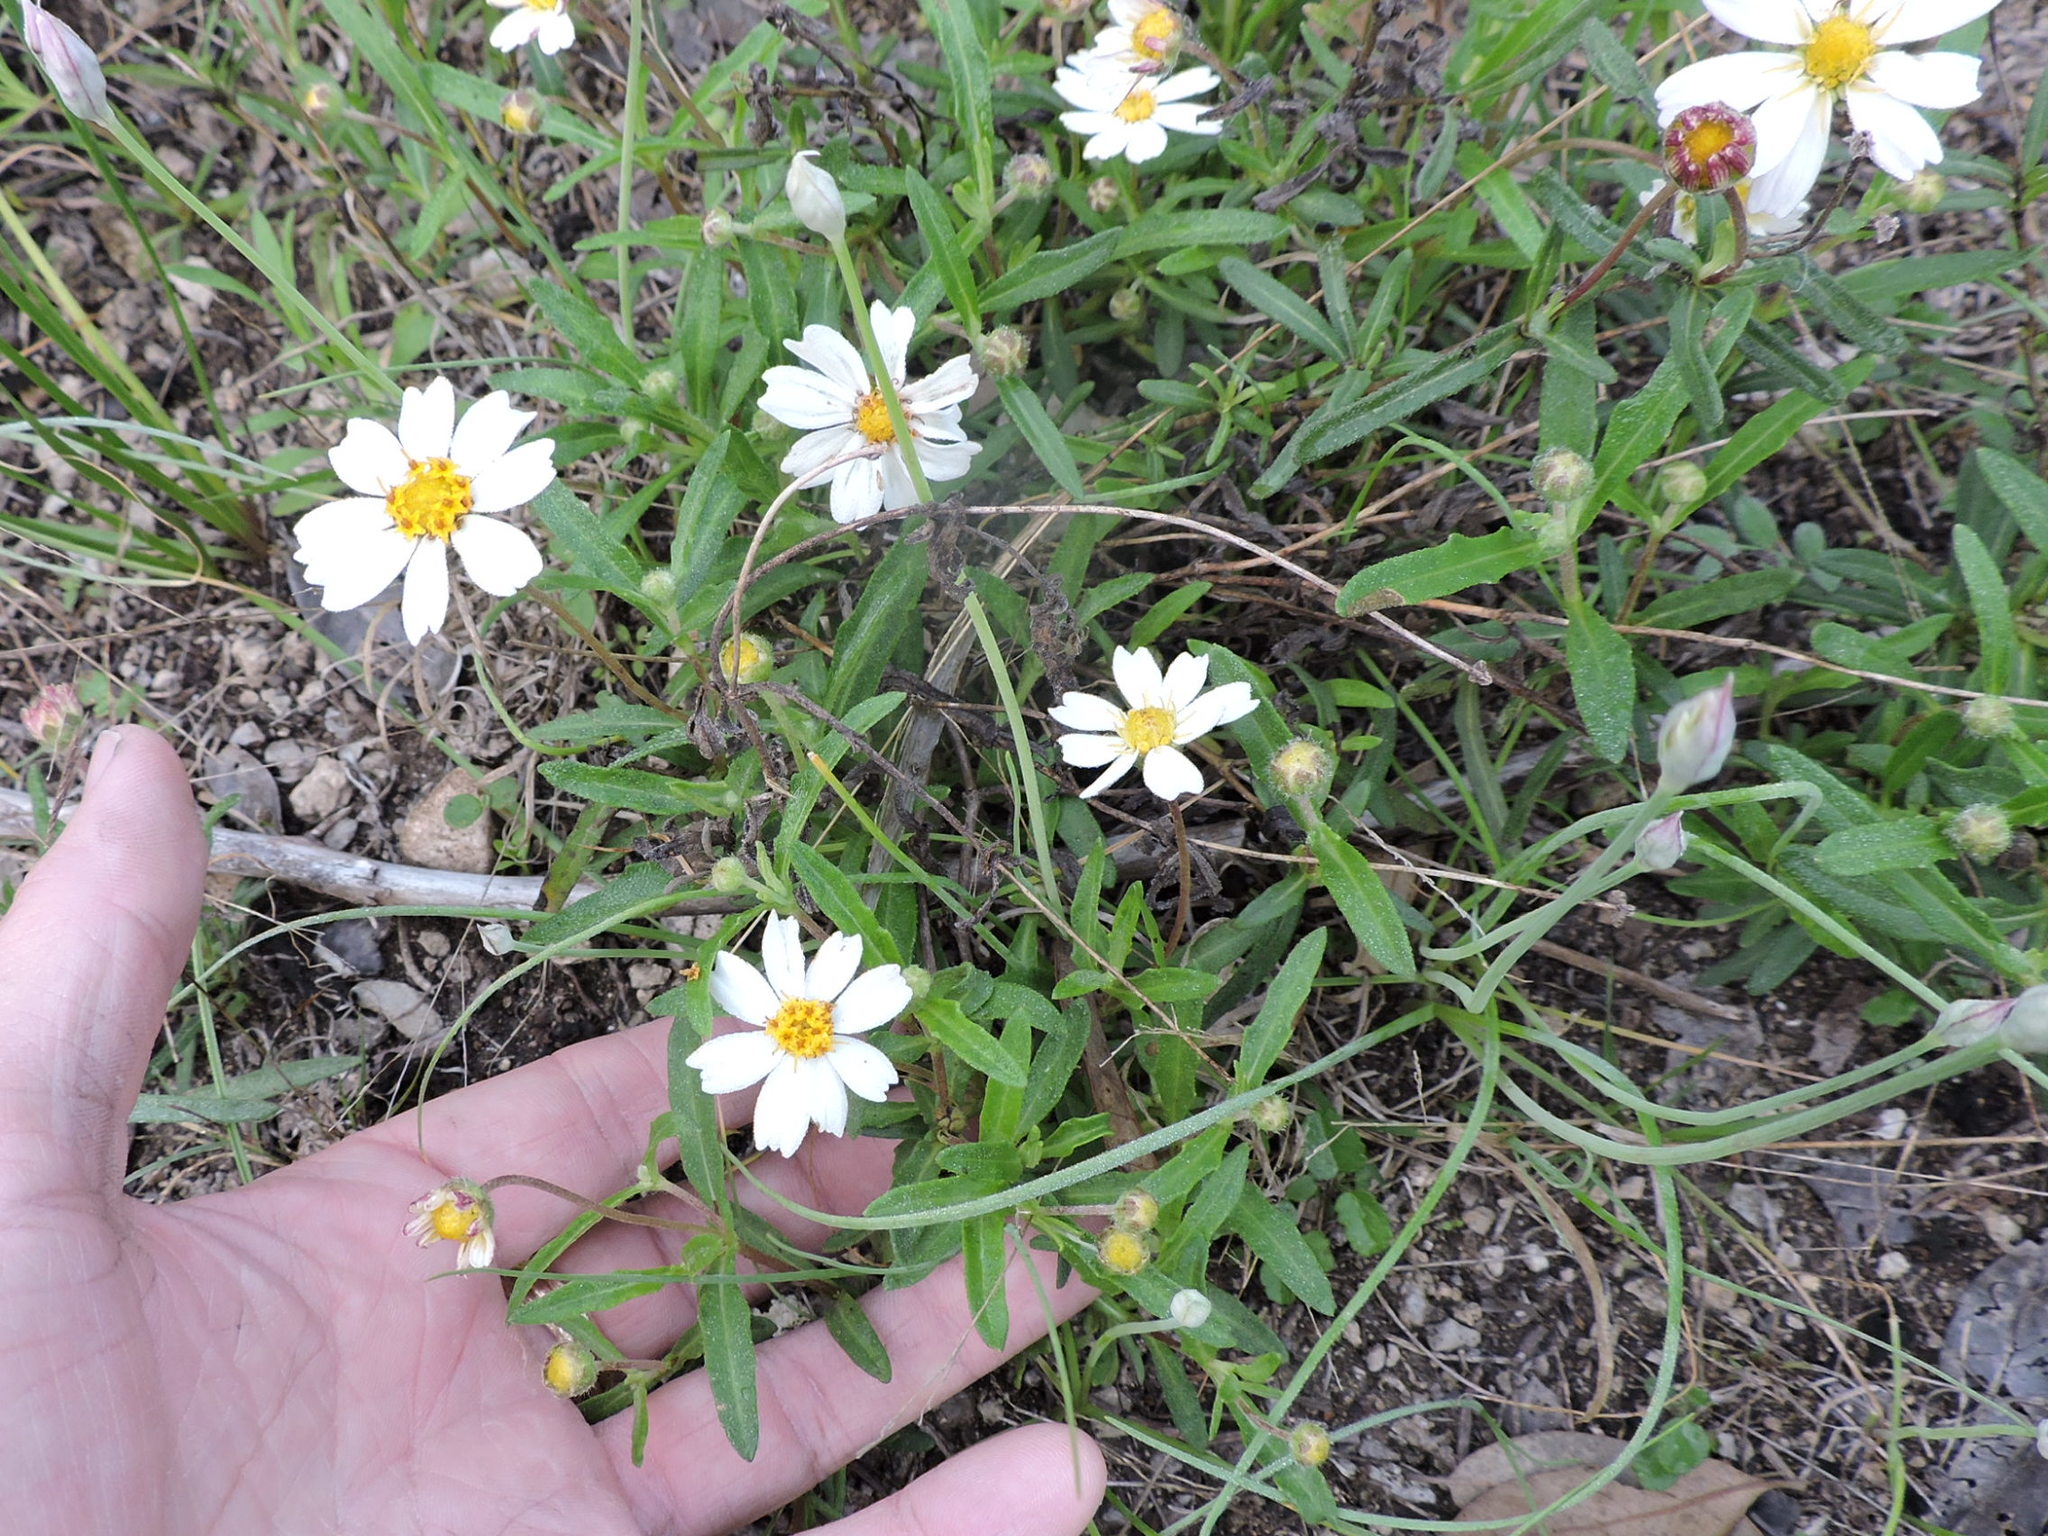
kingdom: Plantae
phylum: Tracheophyta
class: Magnoliopsida
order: Asterales
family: Asteraceae
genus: Melampodium
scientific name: Melampodium leucanthum
